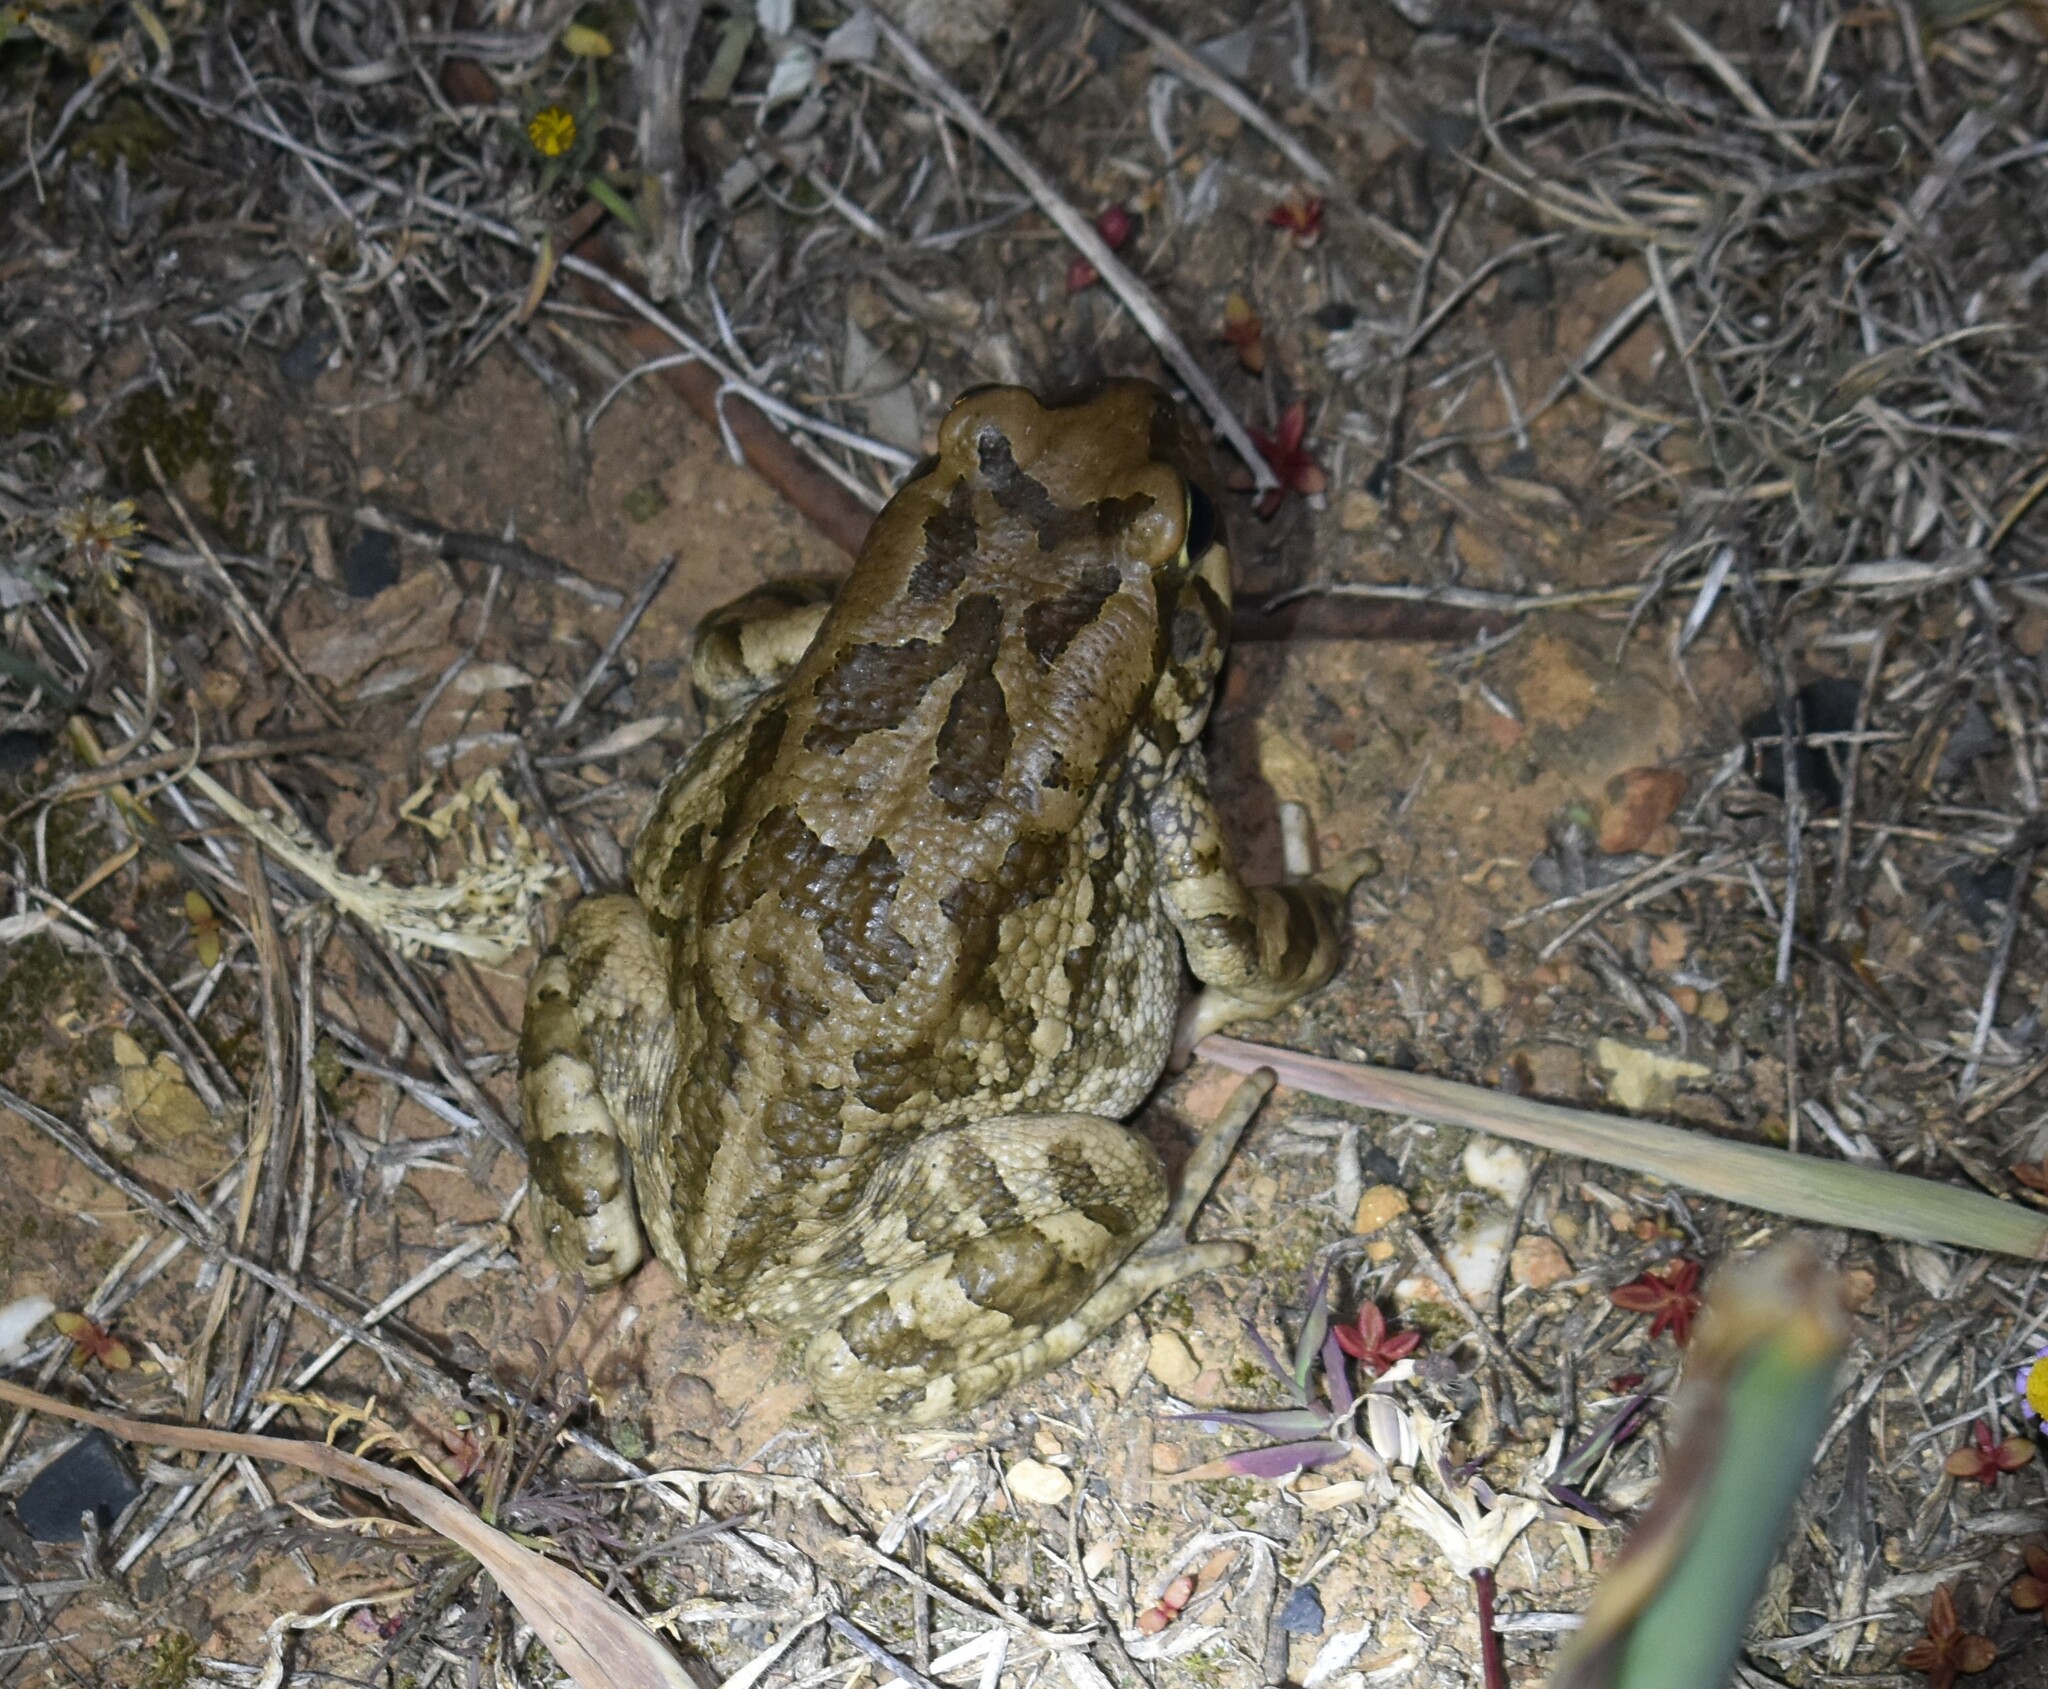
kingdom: Animalia
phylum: Chordata
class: Amphibia
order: Anura
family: Bufonidae
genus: Sclerophrys
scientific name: Sclerophrys capensis
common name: Ranger’s toad
